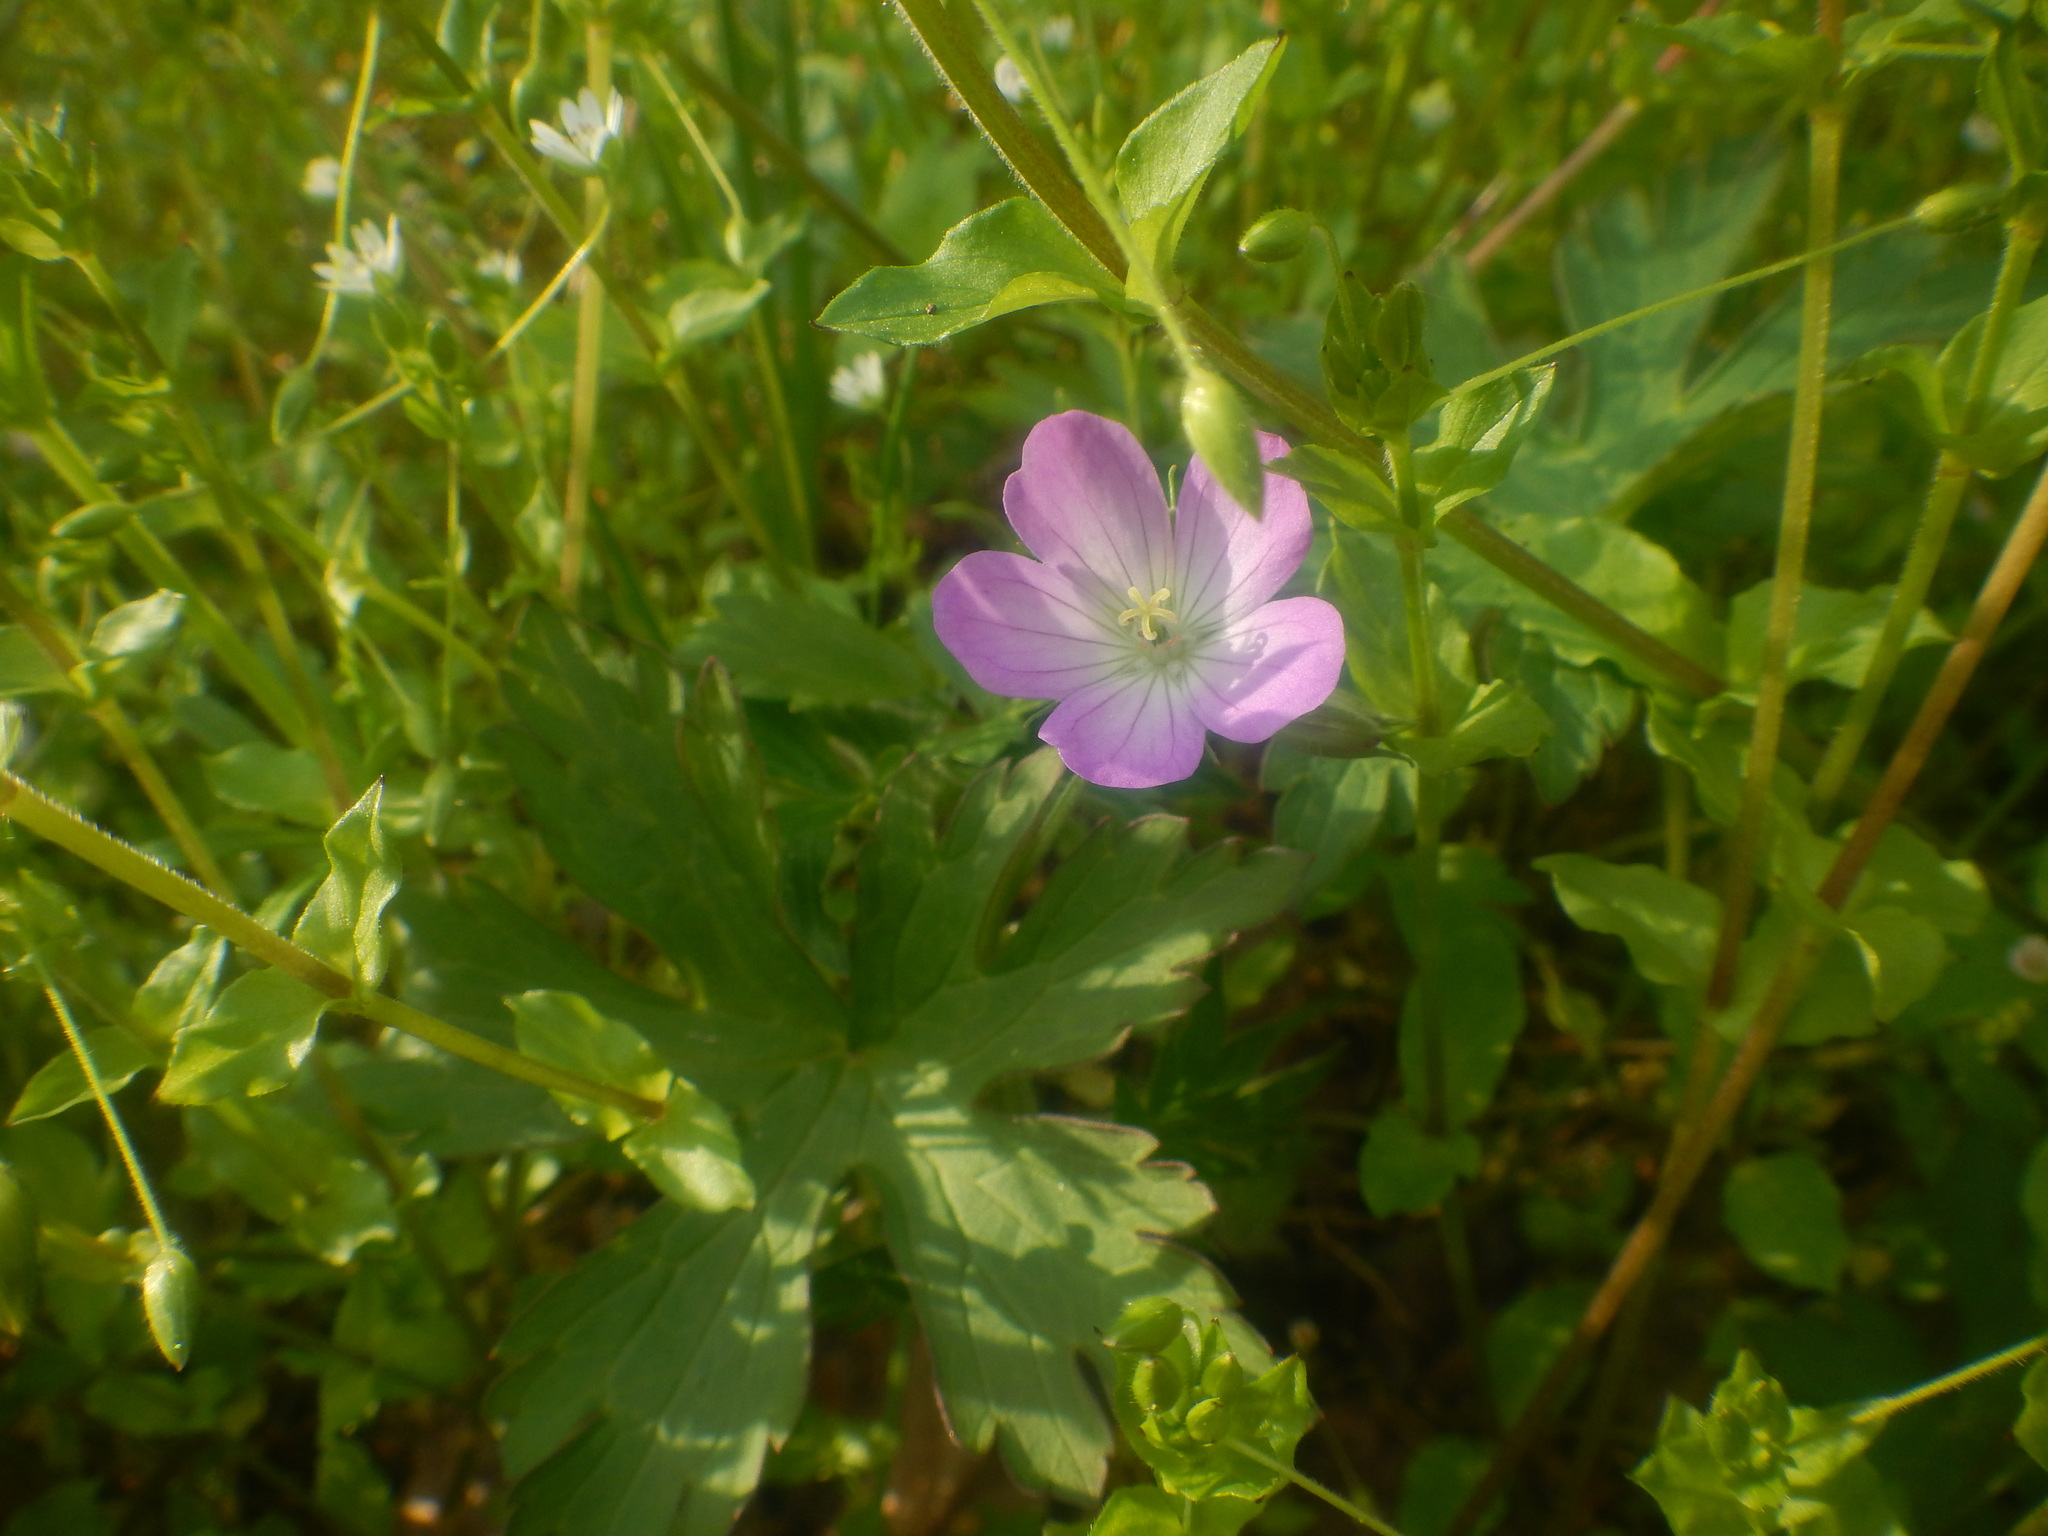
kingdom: Plantae
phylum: Tracheophyta
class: Magnoliopsida
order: Geraniales
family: Geraniaceae
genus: Geranium
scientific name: Geranium maculatum
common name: Spotted geranium
